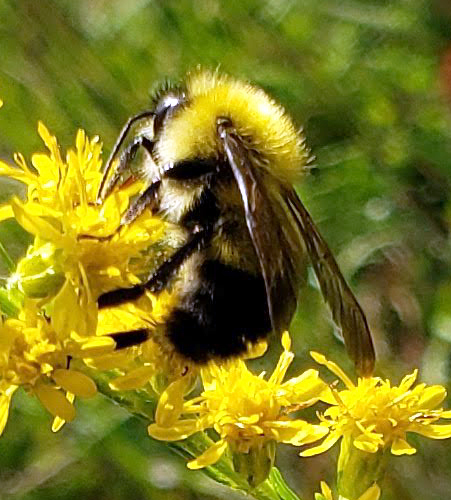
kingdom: Animalia
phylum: Arthropoda
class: Insecta
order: Hymenoptera
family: Apidae
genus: Bombus
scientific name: Bombus perplexus
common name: Confusing bumble bee
